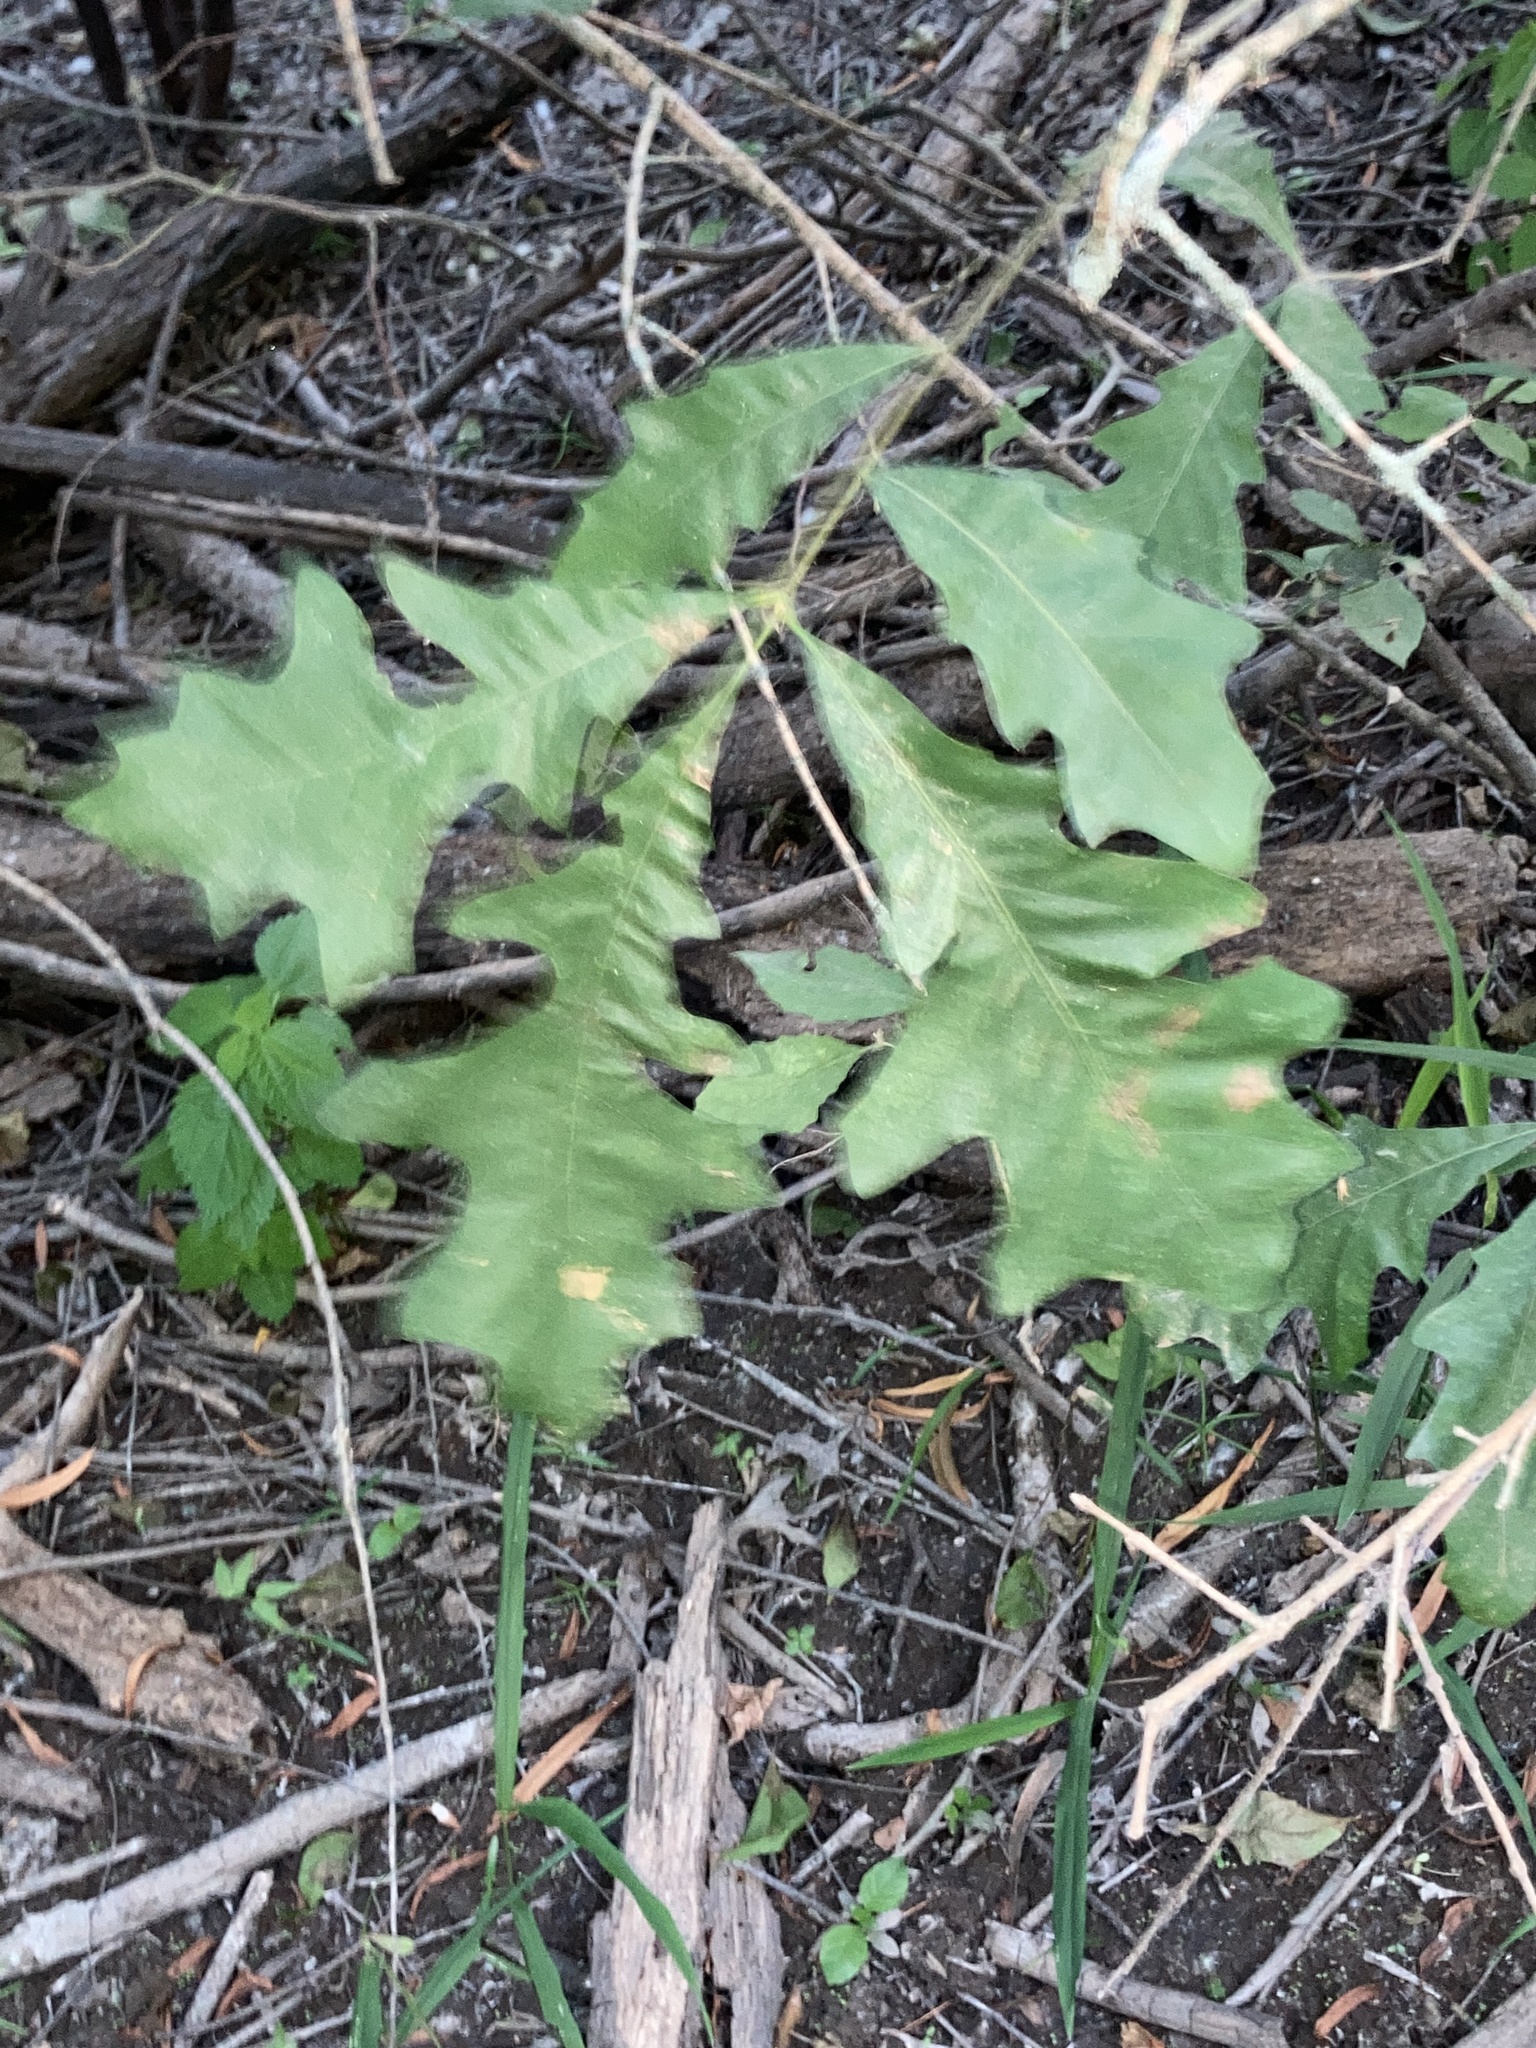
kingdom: Plantae
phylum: Tracheophyta
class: Magnoliopsida
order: Fagales
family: Fagaceae
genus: Quercus
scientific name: Quercus lyrata
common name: Overcup oak
